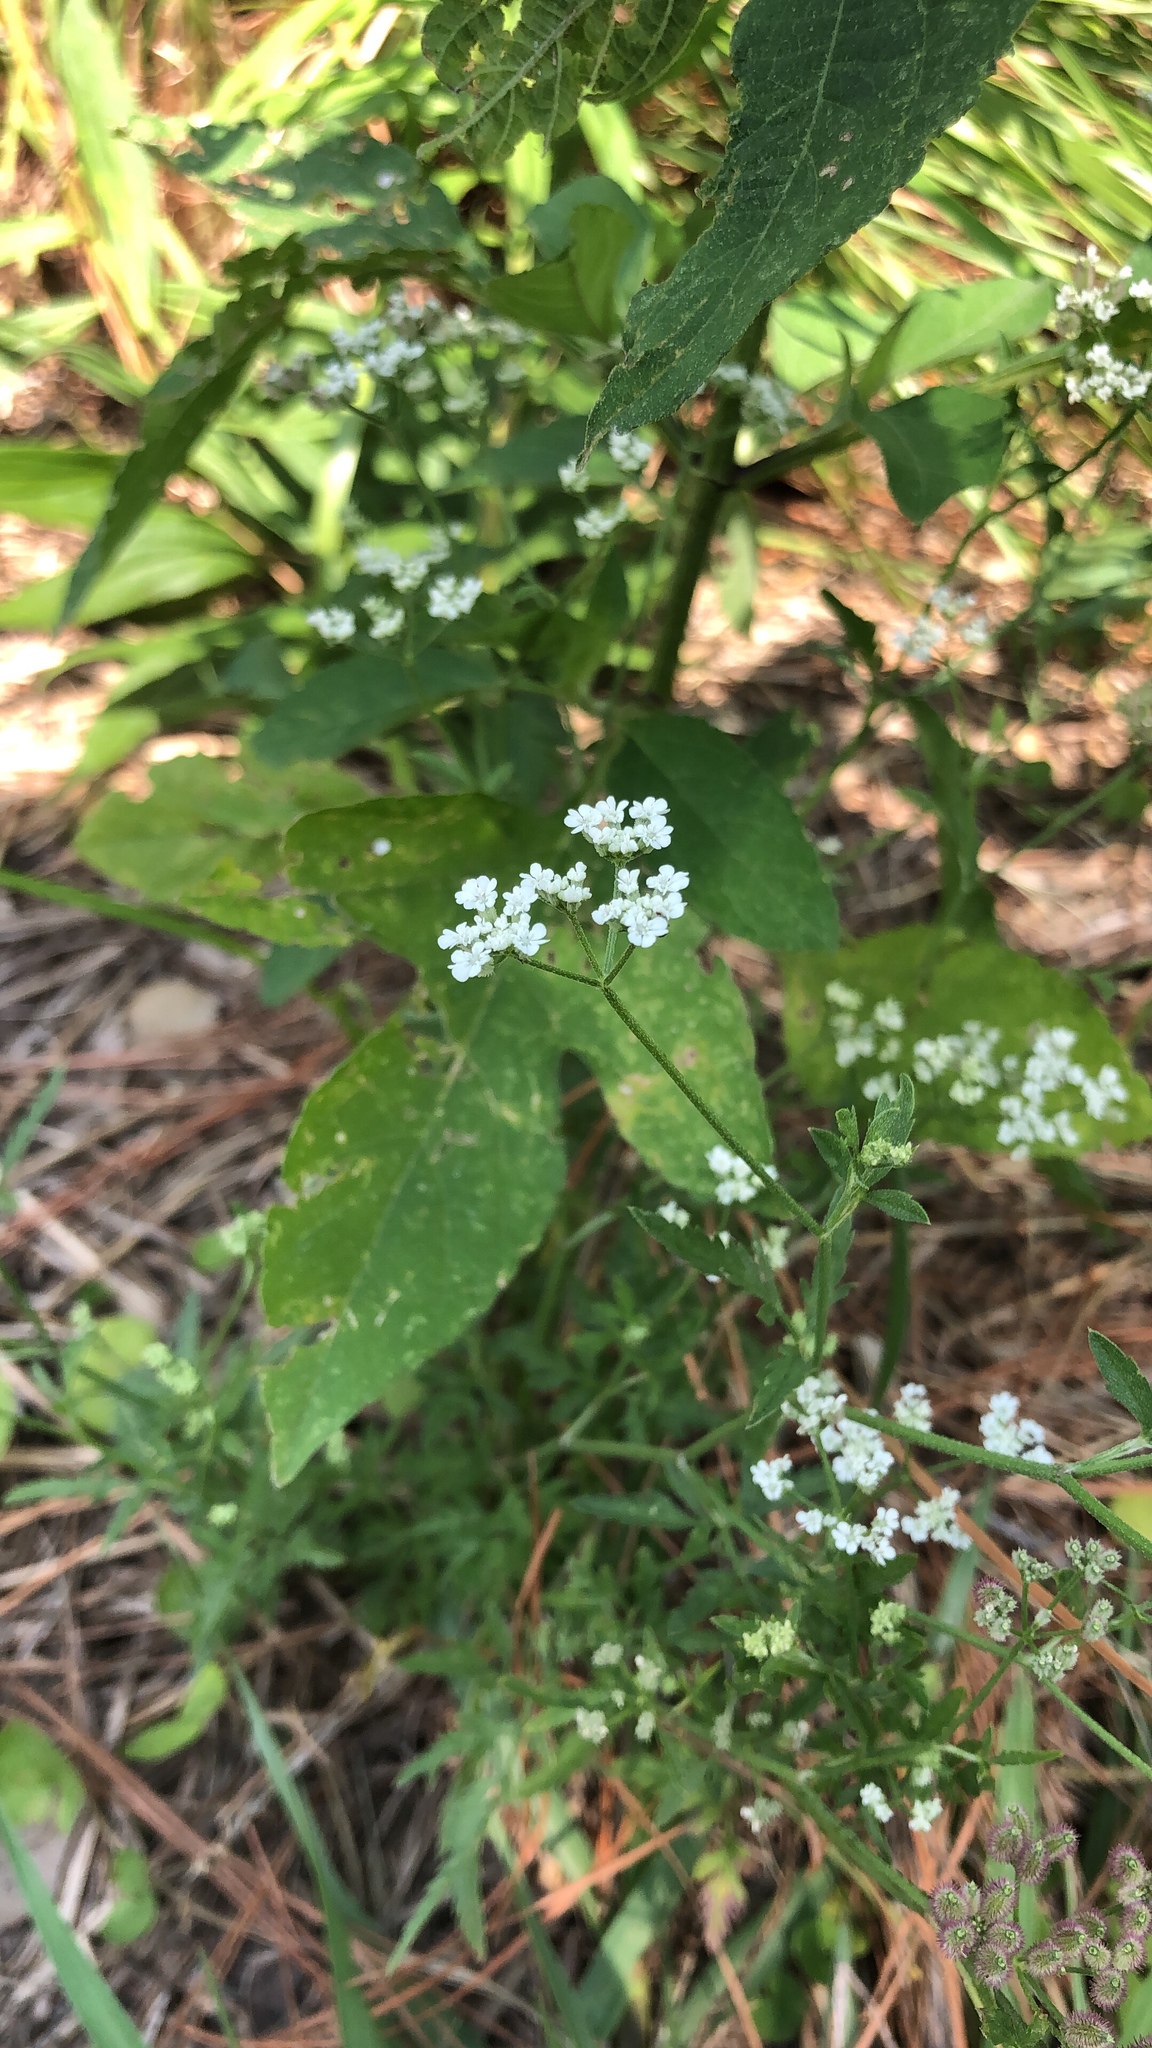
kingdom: Plantae
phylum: Tracheophyta
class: Magnoliopsida
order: Apiales
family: Apiaceae
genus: Torilis
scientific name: Torilis arvensis
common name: Spreading hedge-parsley
